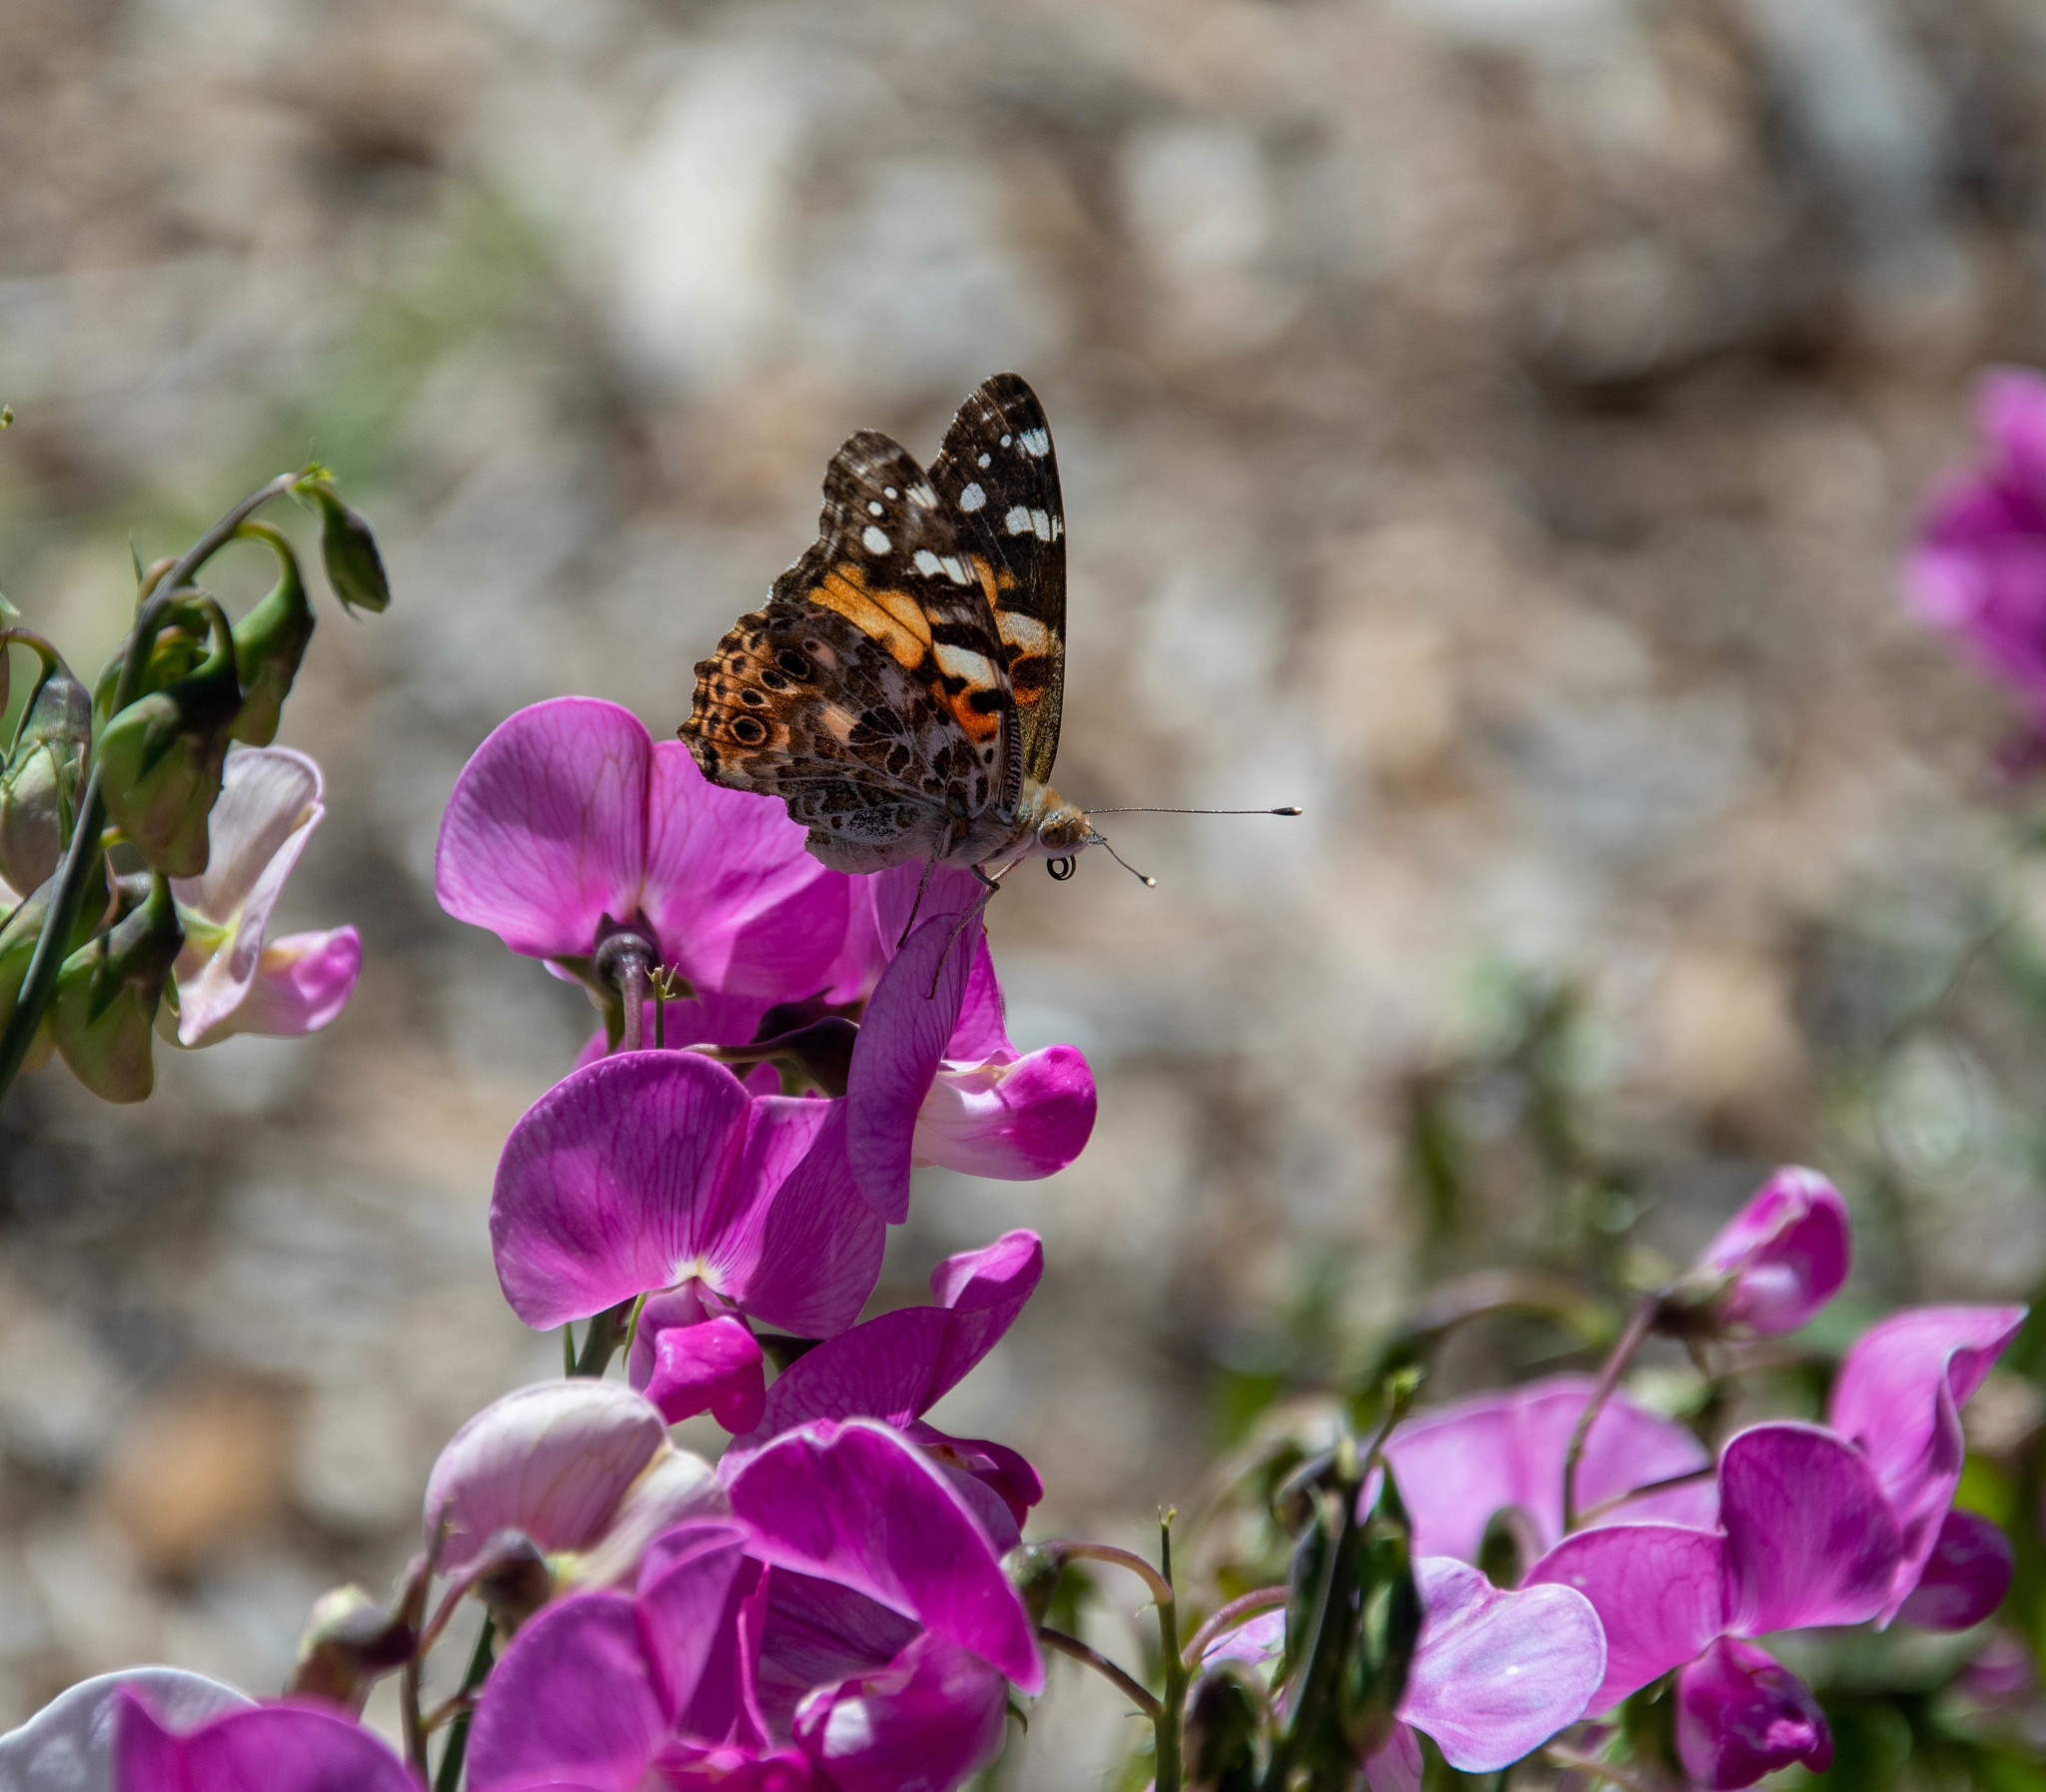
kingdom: Animalia
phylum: Arthropoda
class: Insecta
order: Lepidoptera
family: Nymphalidae
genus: Vanessa
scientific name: Vanessa cardui
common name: Painted lady
